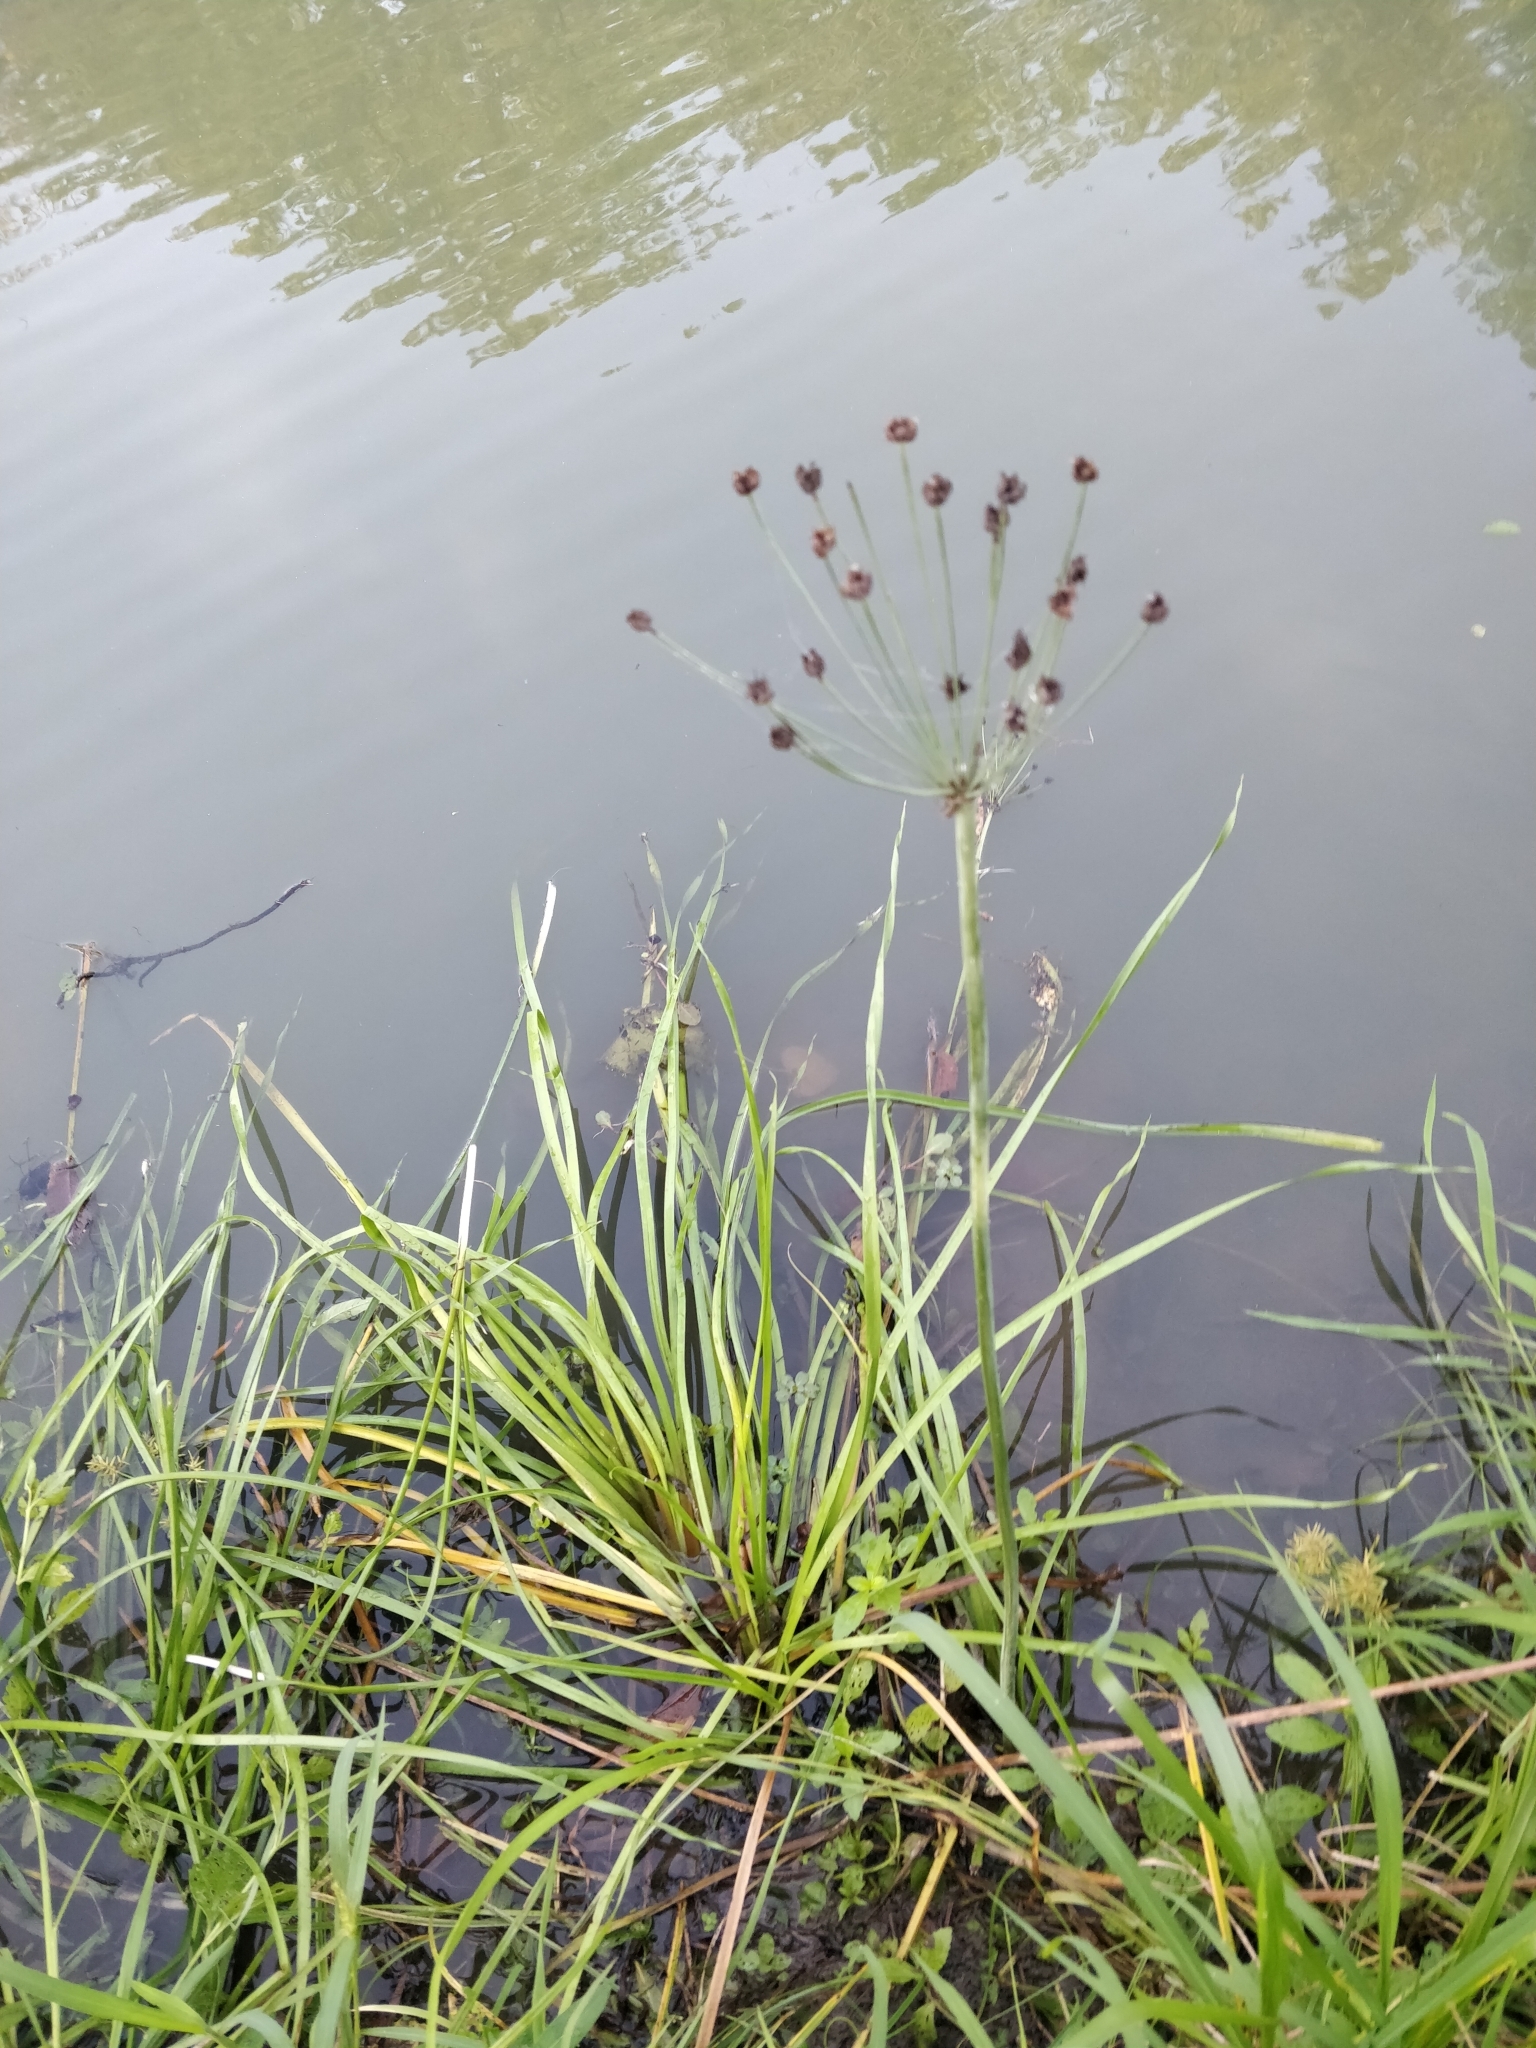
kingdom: Plantae
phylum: Tracheophyta
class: Liliopsida
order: Alismatales
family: Butomaceae
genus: Butomus
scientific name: Butomus umbellatus
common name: Flowering-rush
